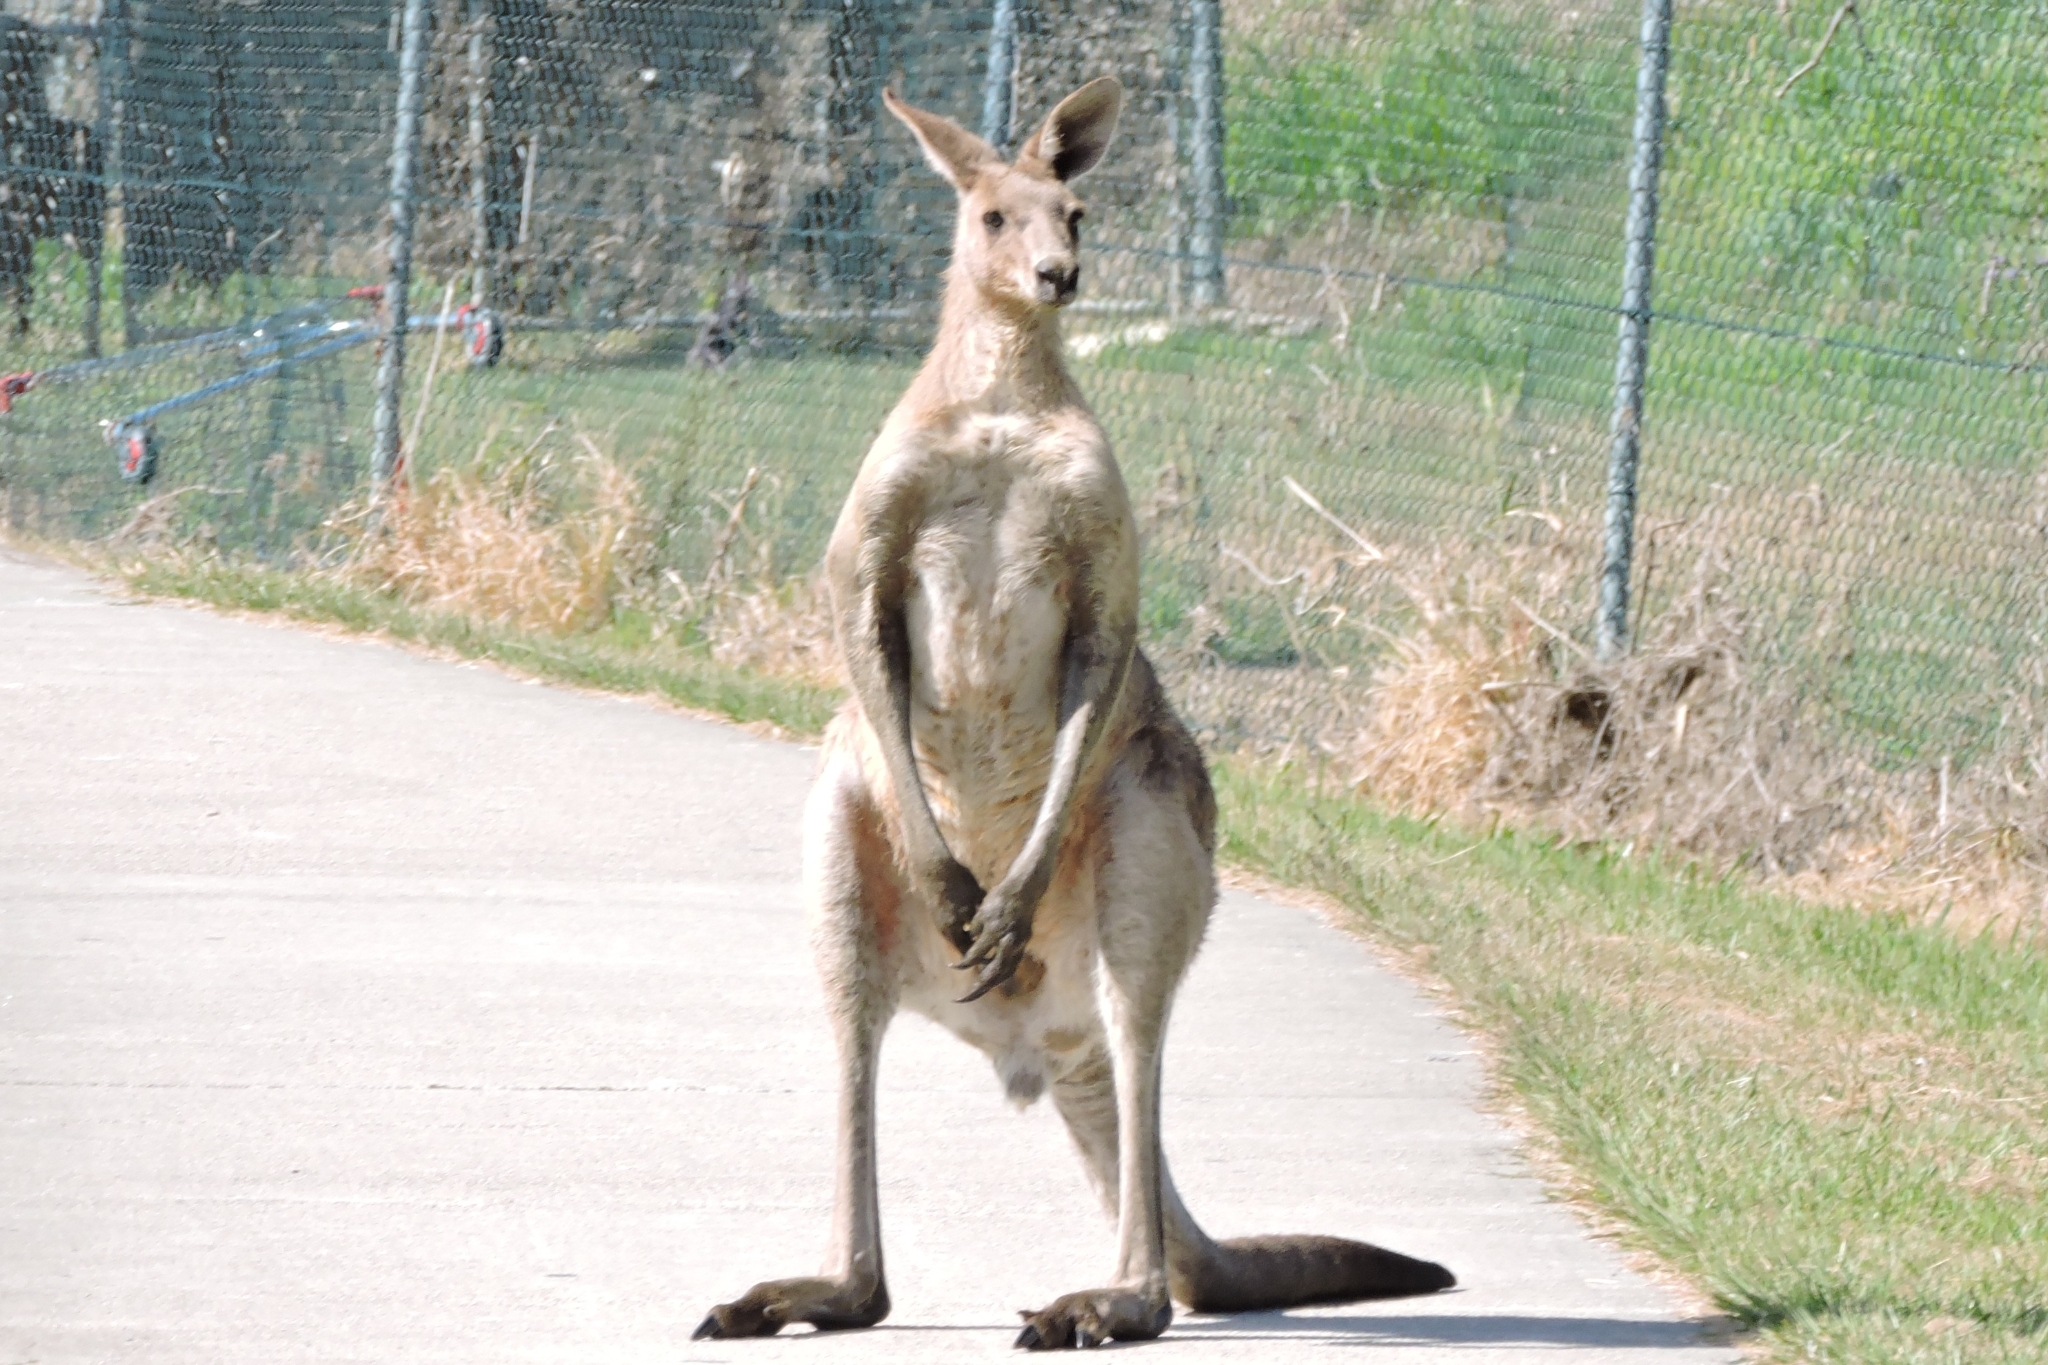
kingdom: Animalia
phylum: Chordata
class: Mammalia
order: Diprotodontia
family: Macropodidae
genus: Macropus
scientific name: Macropus giganteus
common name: Eastern grey kangaroo
